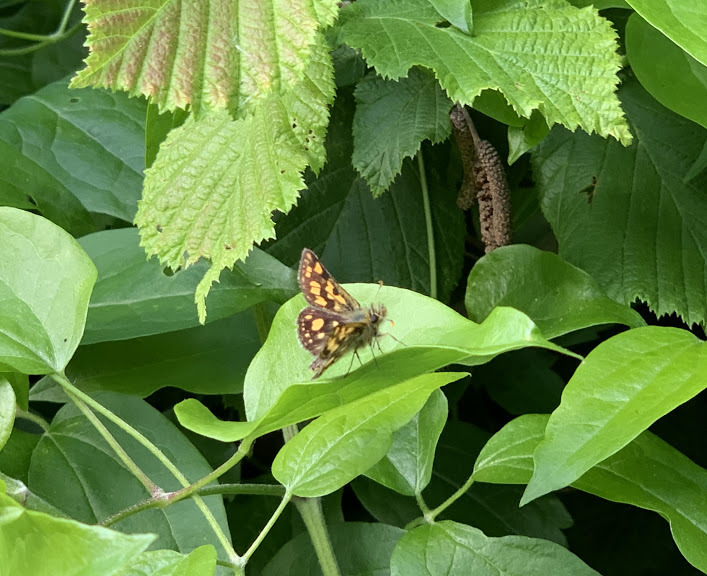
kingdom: Animalia
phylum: Arthropoda
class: Insecta
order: Lepidoptera
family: Hesperiidae
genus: Carterocephalus
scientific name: Carterocephalus palaemon
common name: Chequered skipper
